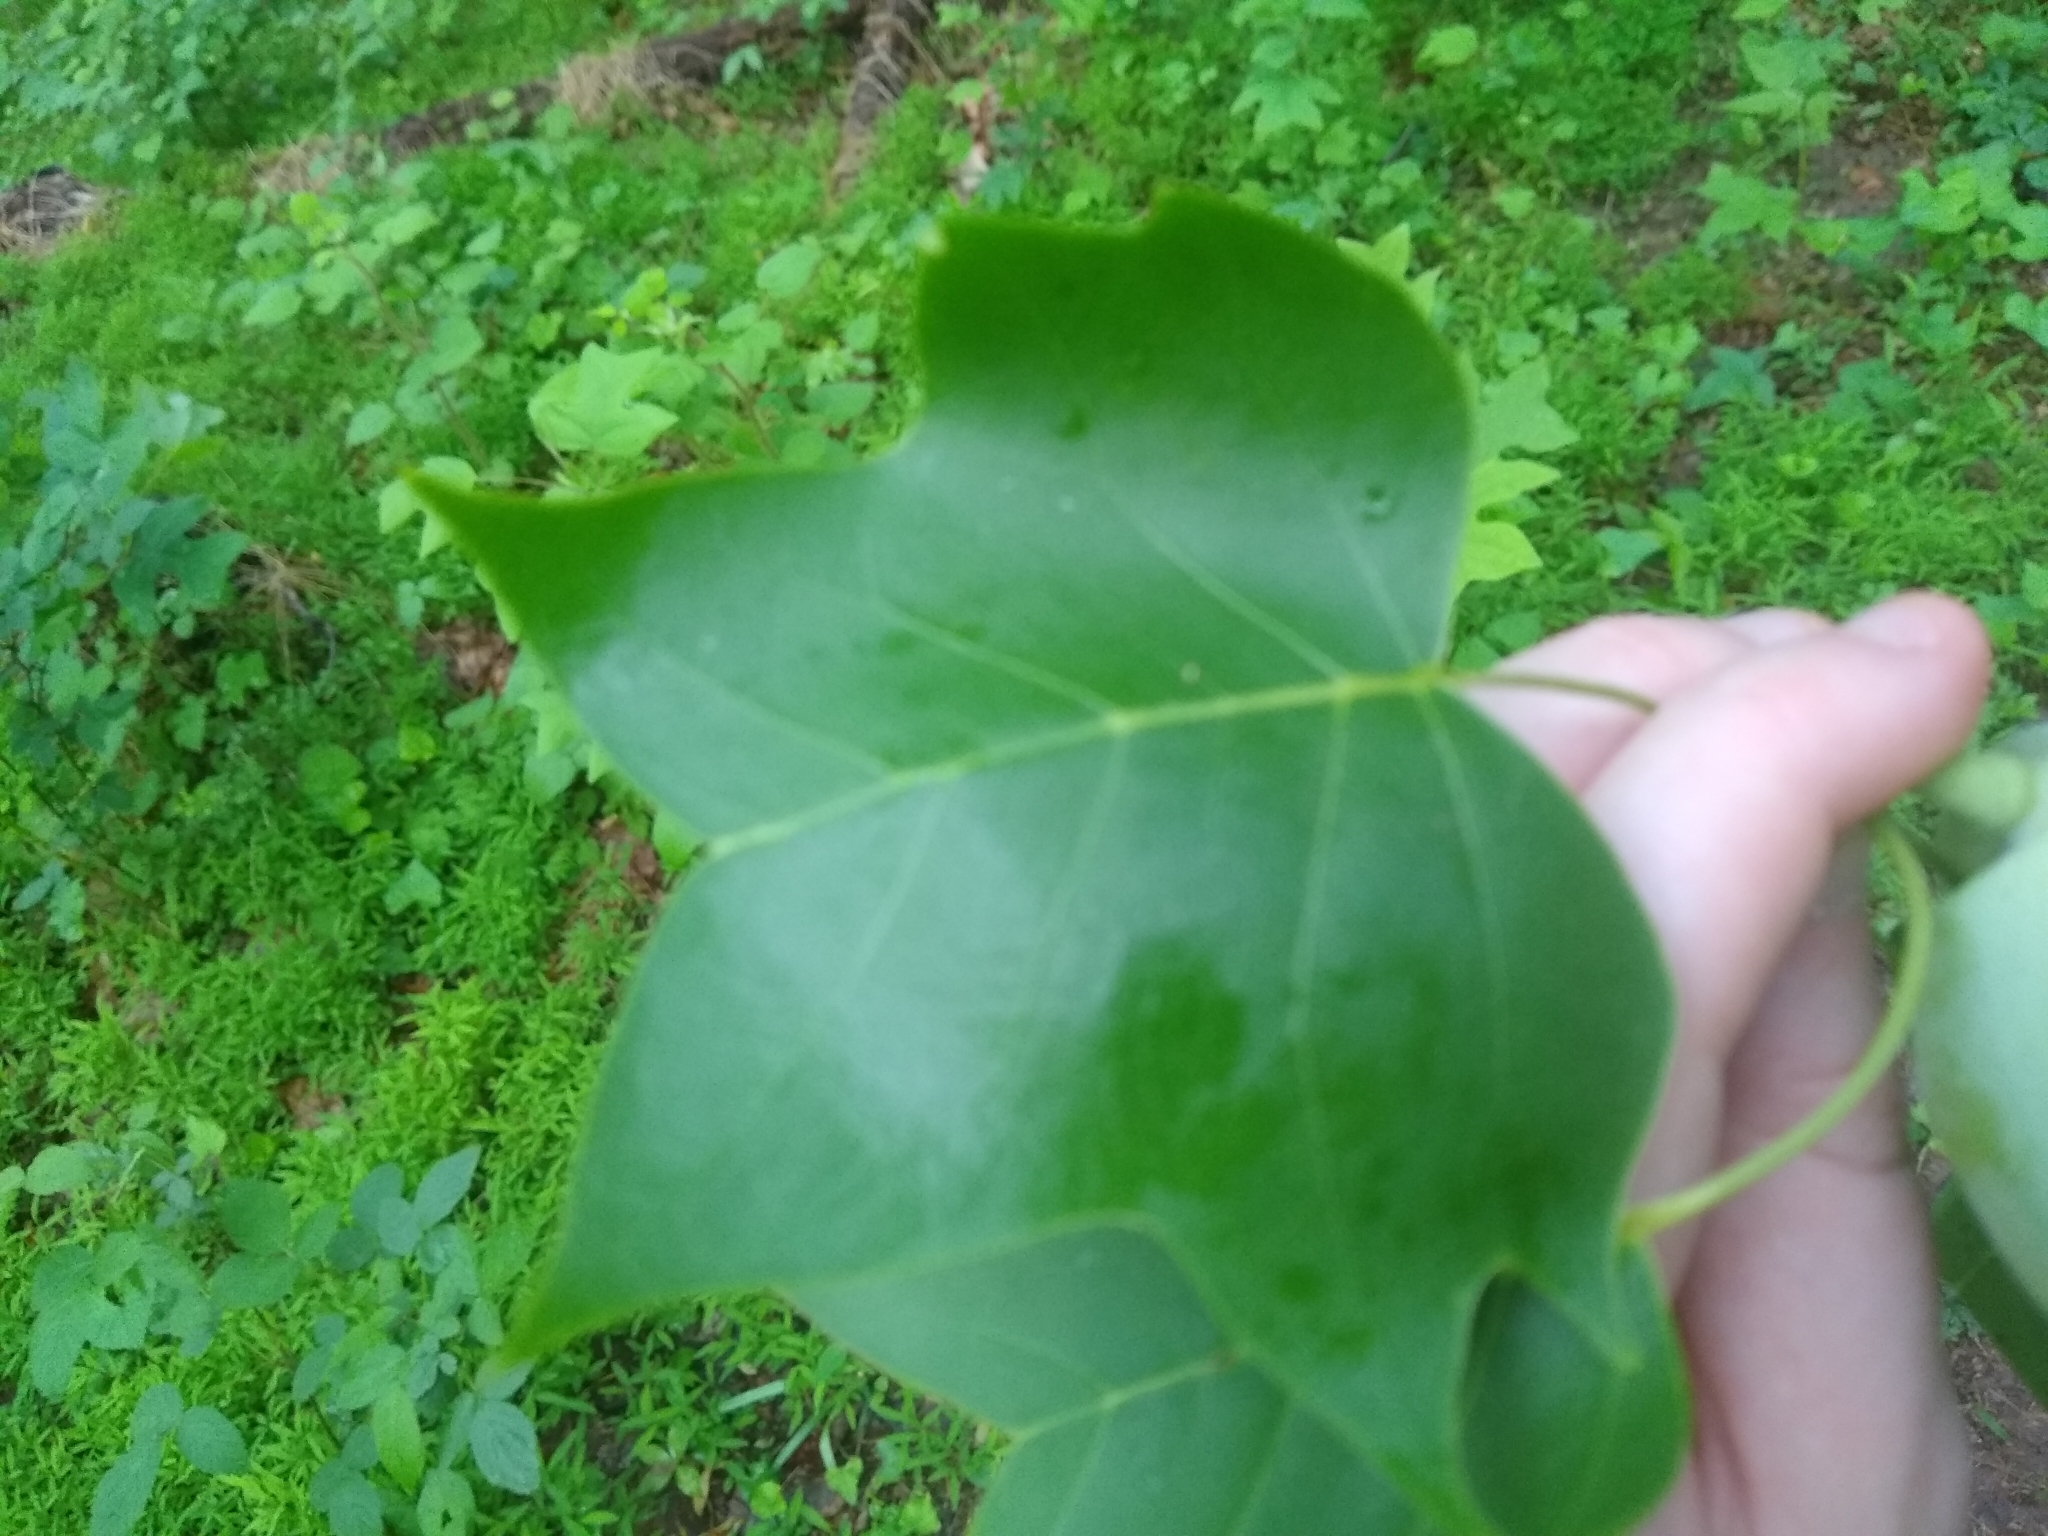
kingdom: Plantae
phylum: Tracheophyta
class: Magnoliopsida
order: Magnoliales
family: Magnoliaceae
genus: Liriodendron
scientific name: Liriodendron tulipifera
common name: Tulip tree
